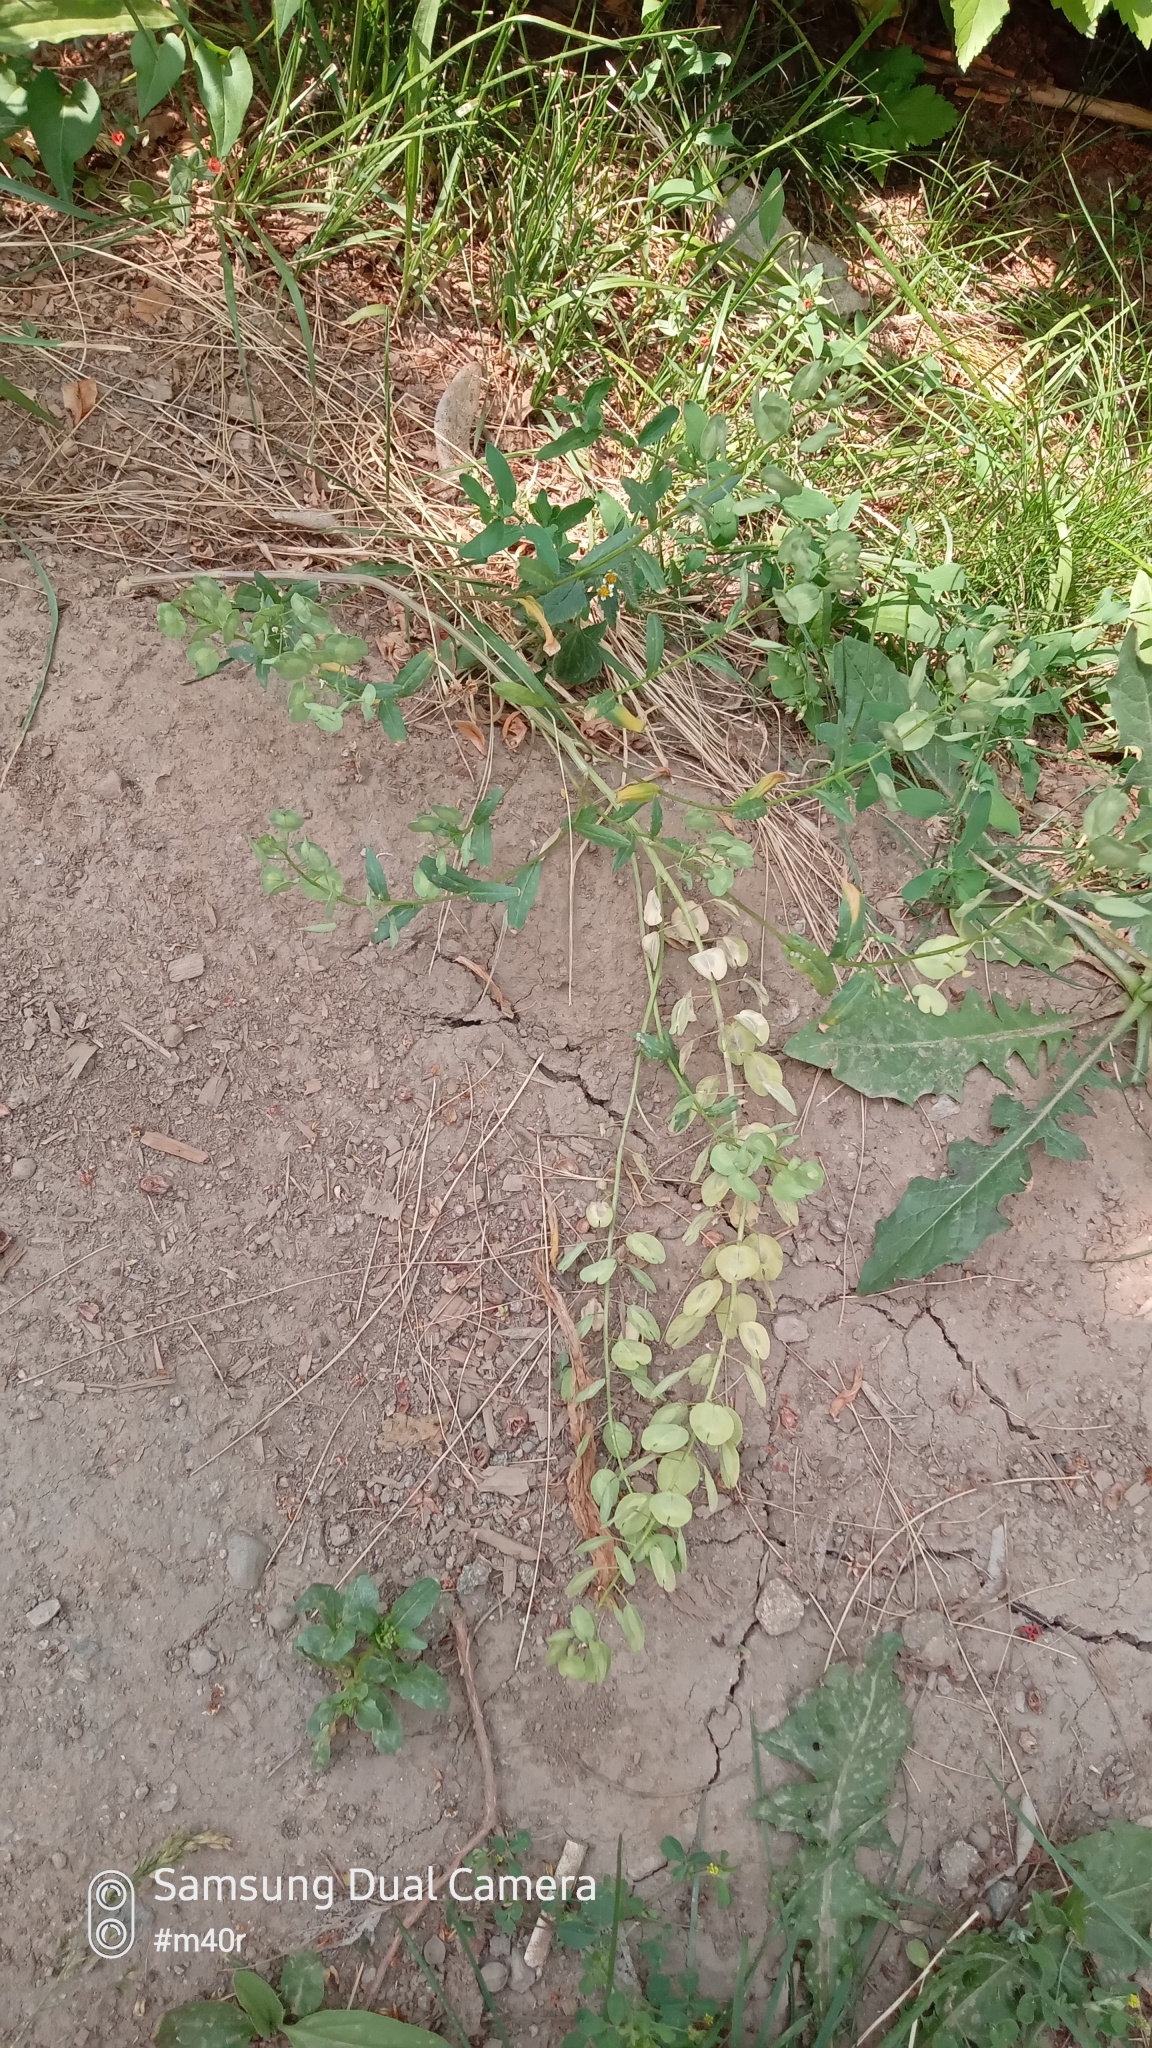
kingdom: Plantae
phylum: Tracheophyta
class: Magnoliopsida
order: Brassicales
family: Brassicaceae
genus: Thlaspi
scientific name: Thlaspi arvense
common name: Field pennycress
